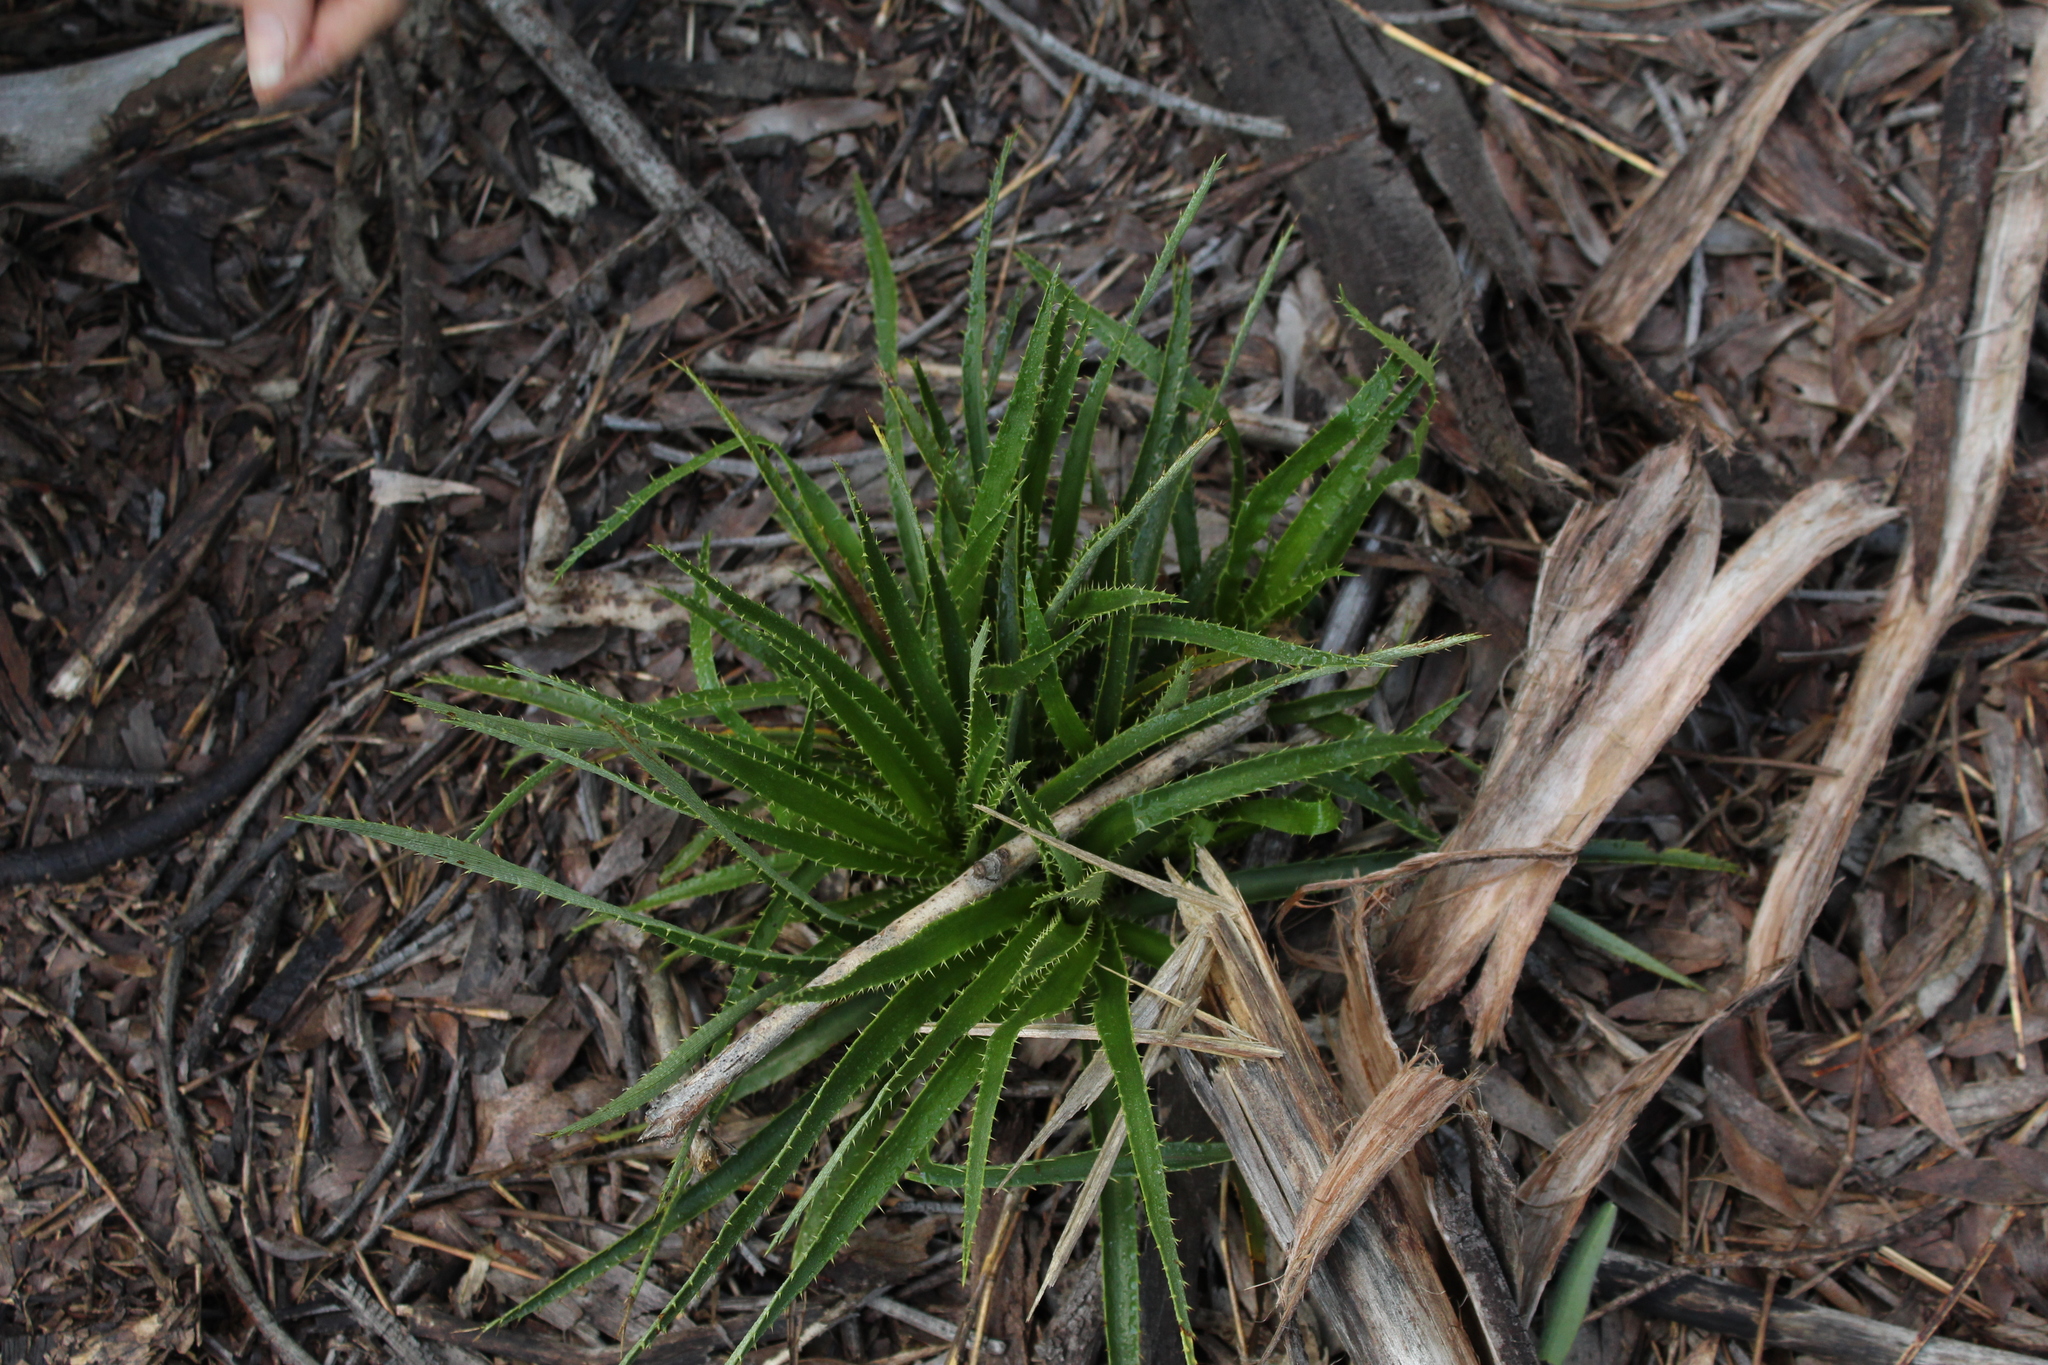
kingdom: Plantae
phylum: Tracheophyta
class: Magnoliopsida
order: Apiales
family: Apiaceae
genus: Eryngium
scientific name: Eryngium humboldtii
